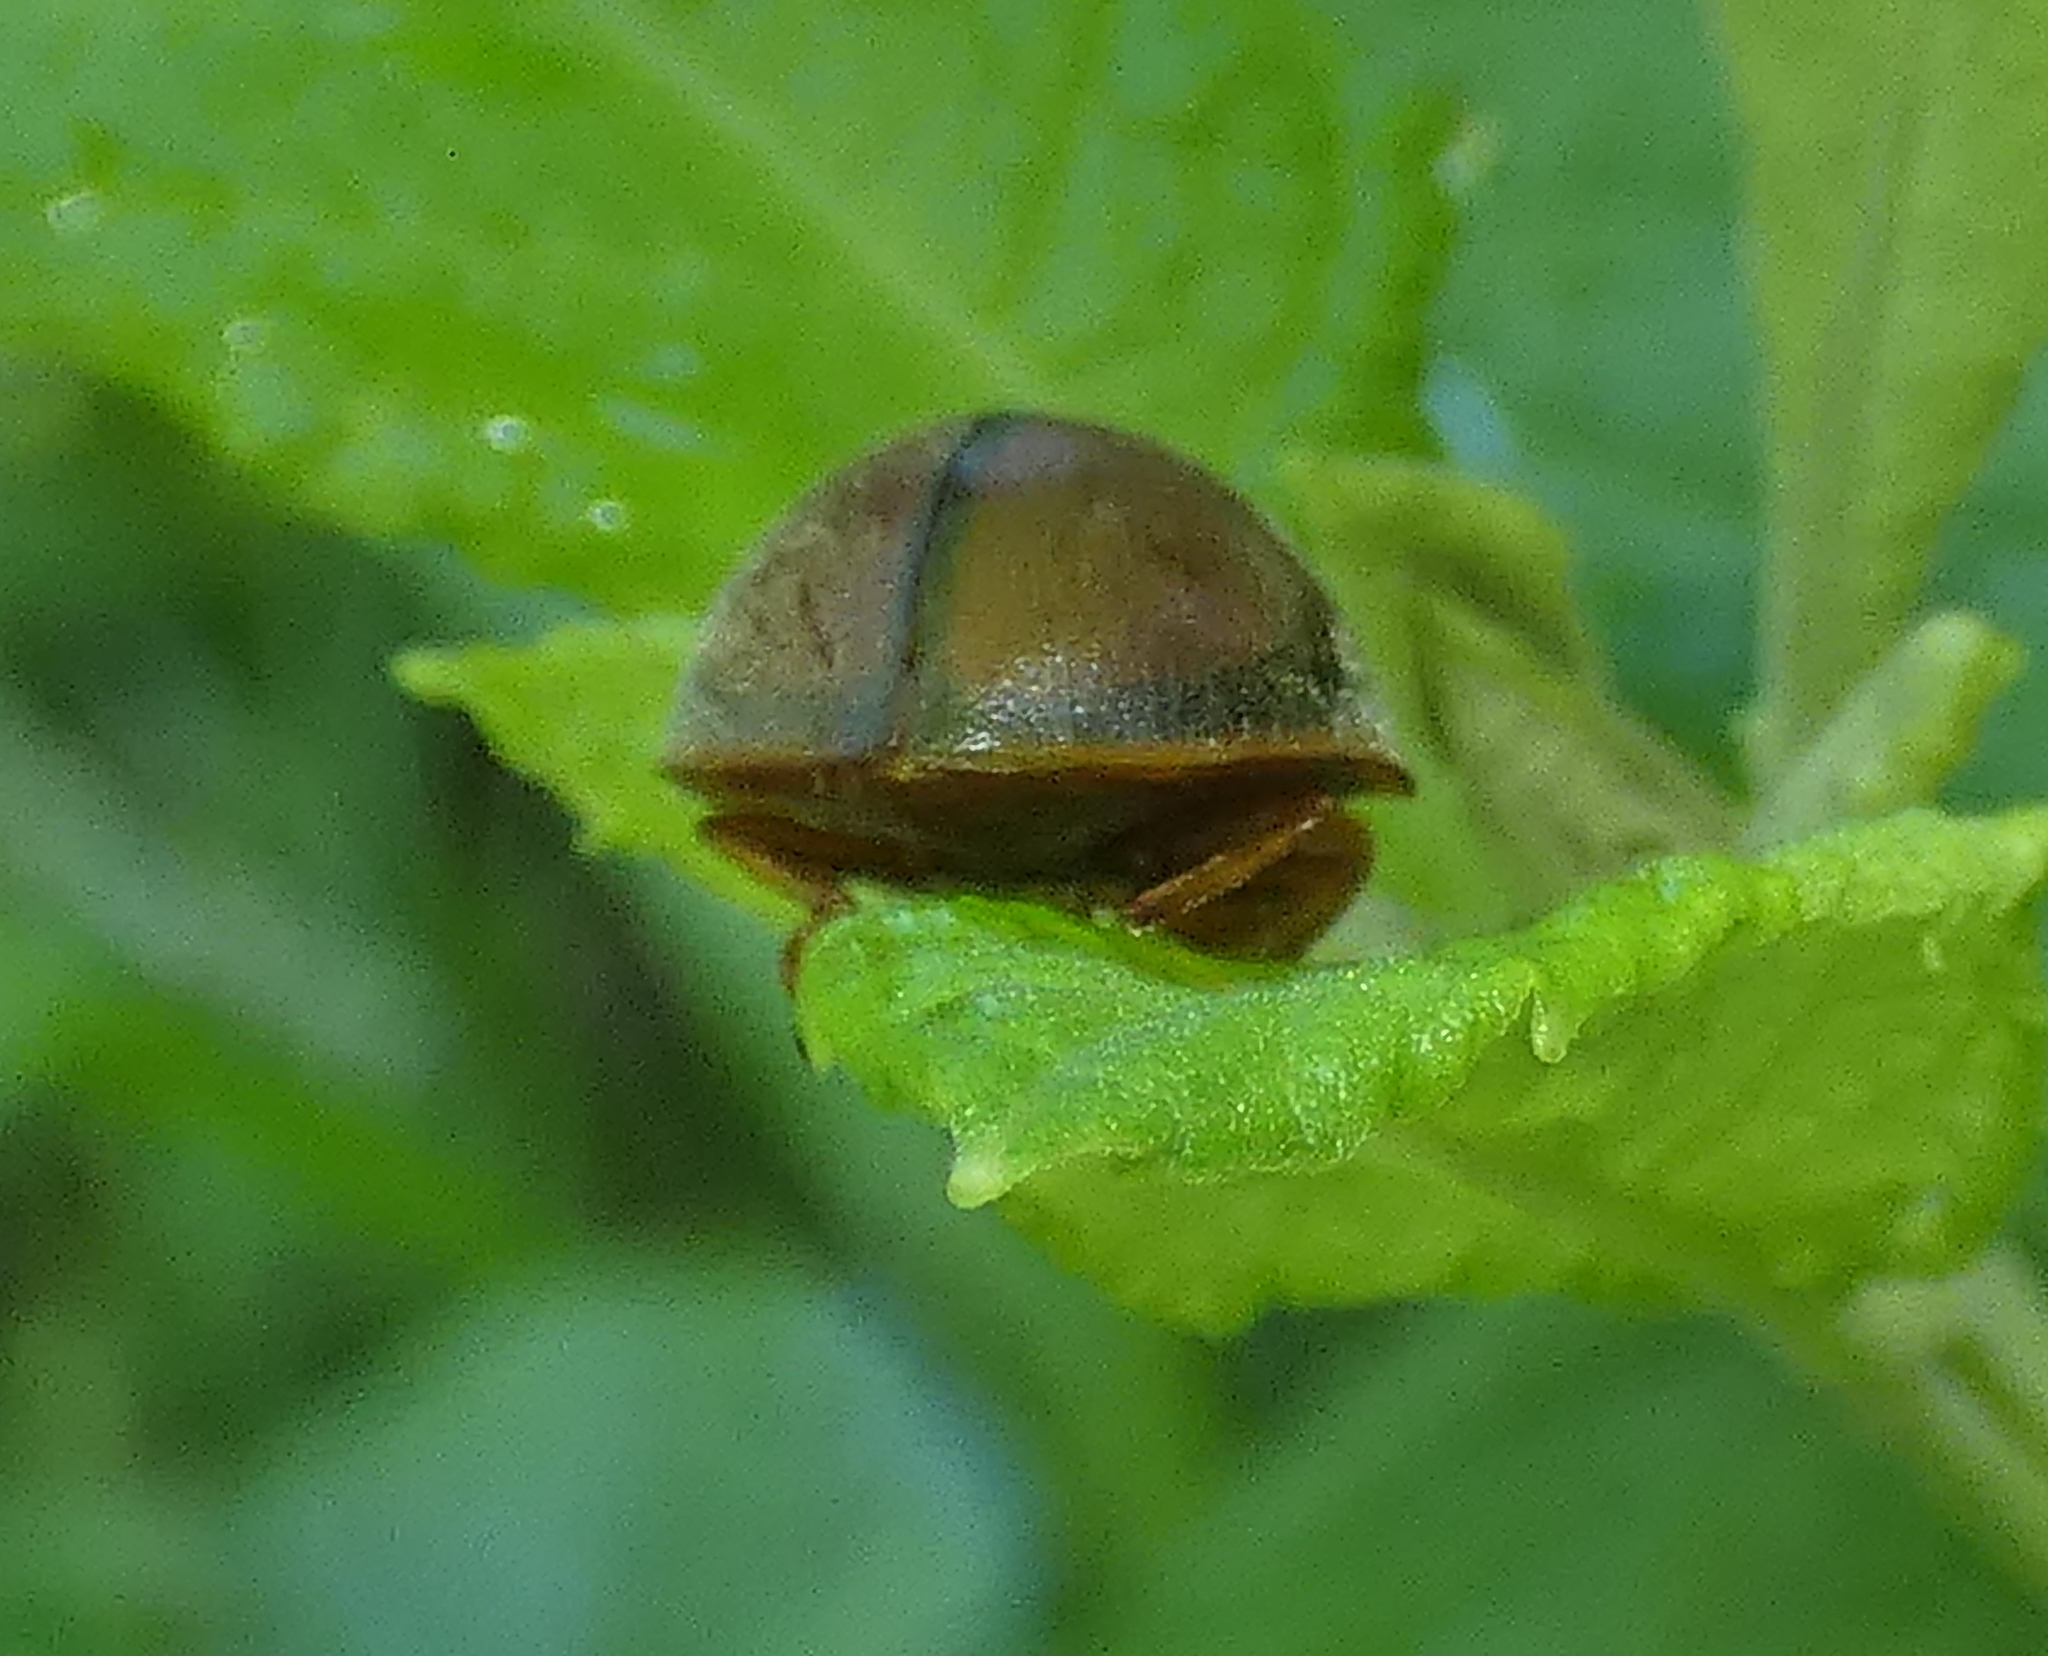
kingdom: Animalia
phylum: Arthropoda
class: Insecta
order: Coleoptera
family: Coccinellidae
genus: Epilachna
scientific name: Epilachna cacica
